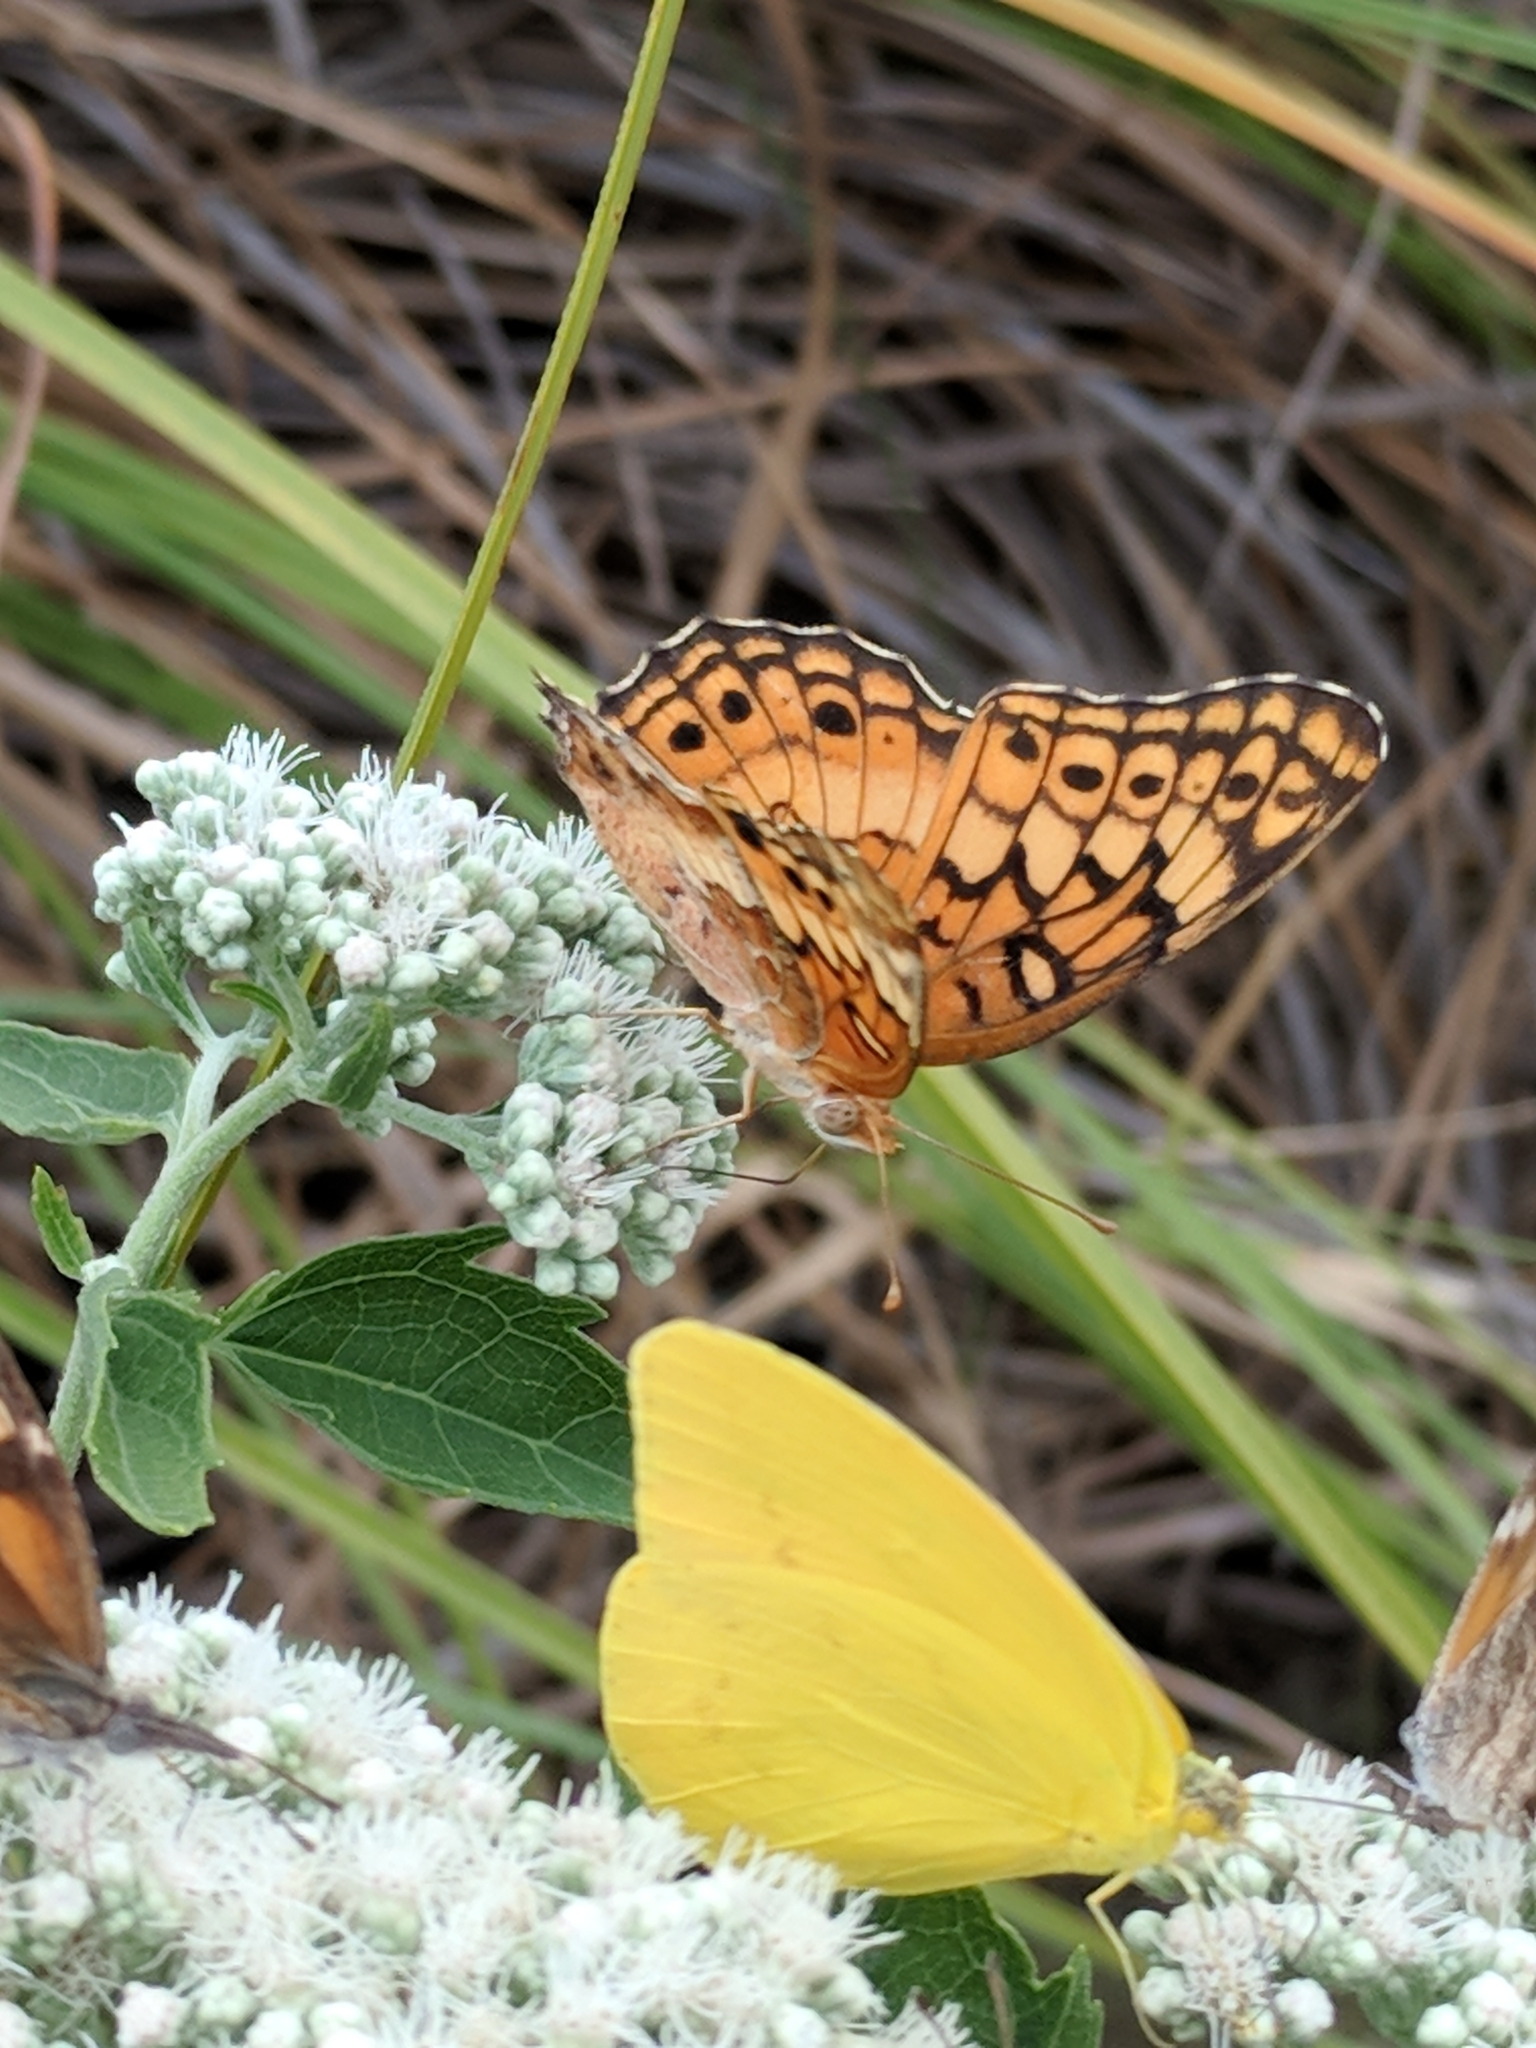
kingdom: Animalia
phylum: Arthropoda
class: Insecta
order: Lepidoptera
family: Nymphalidae
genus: Euptoieta
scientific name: Euptoieta claudia
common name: Variegated fritillary
